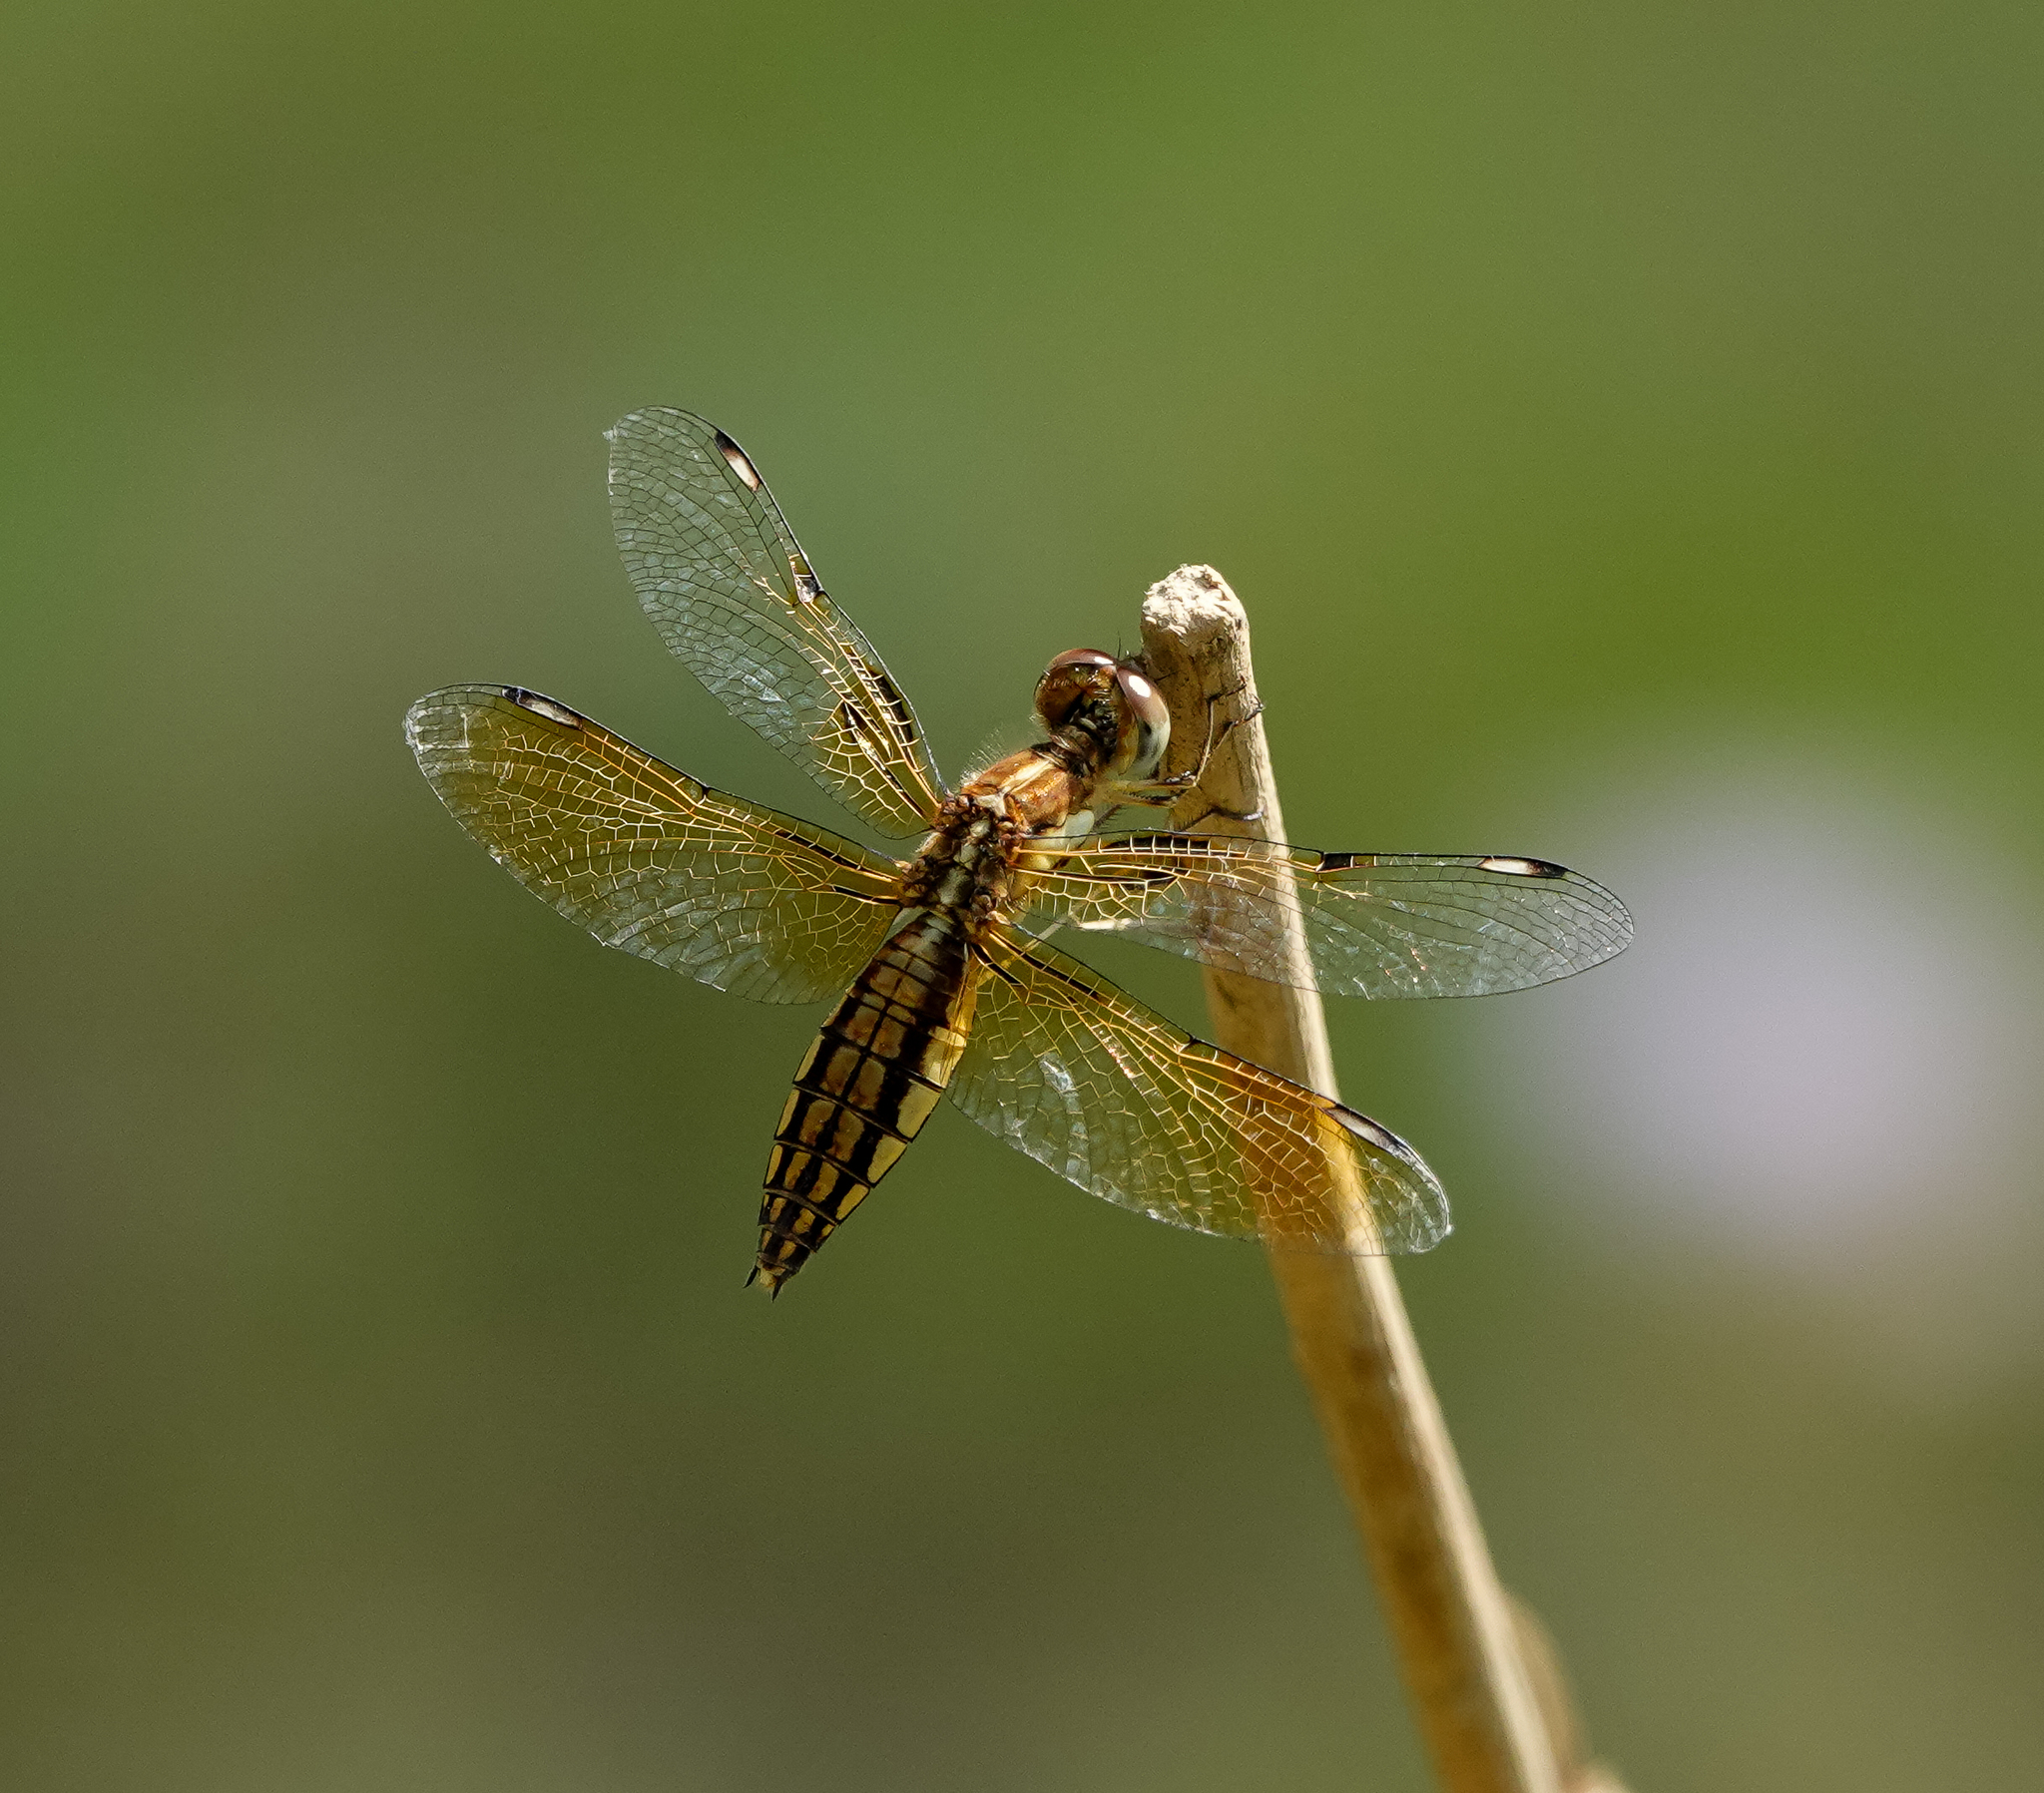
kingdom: Animalia
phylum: Arthropoda
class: Insecta
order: Odonata
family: Libellulidae
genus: Palpopleura
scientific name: Palpopleura sexmaculata
